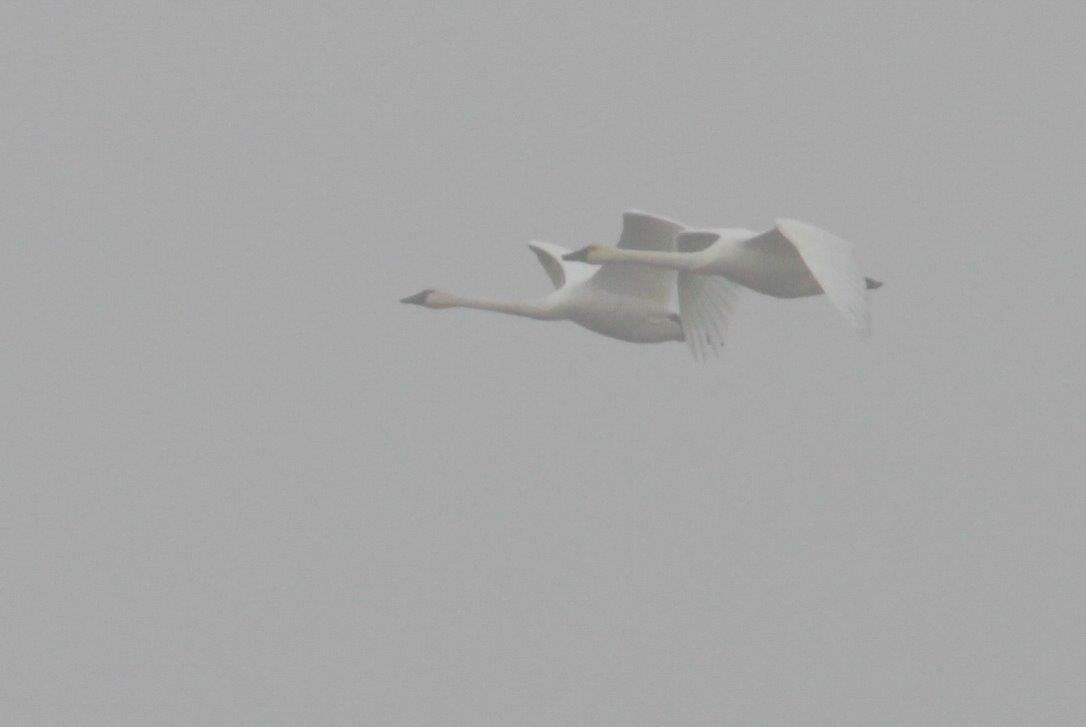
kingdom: Animalia
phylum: Chordata
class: Aves
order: Anseriformes
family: Anatidae
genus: Cygnus
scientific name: Cygnus columbianus
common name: Tundra swan
